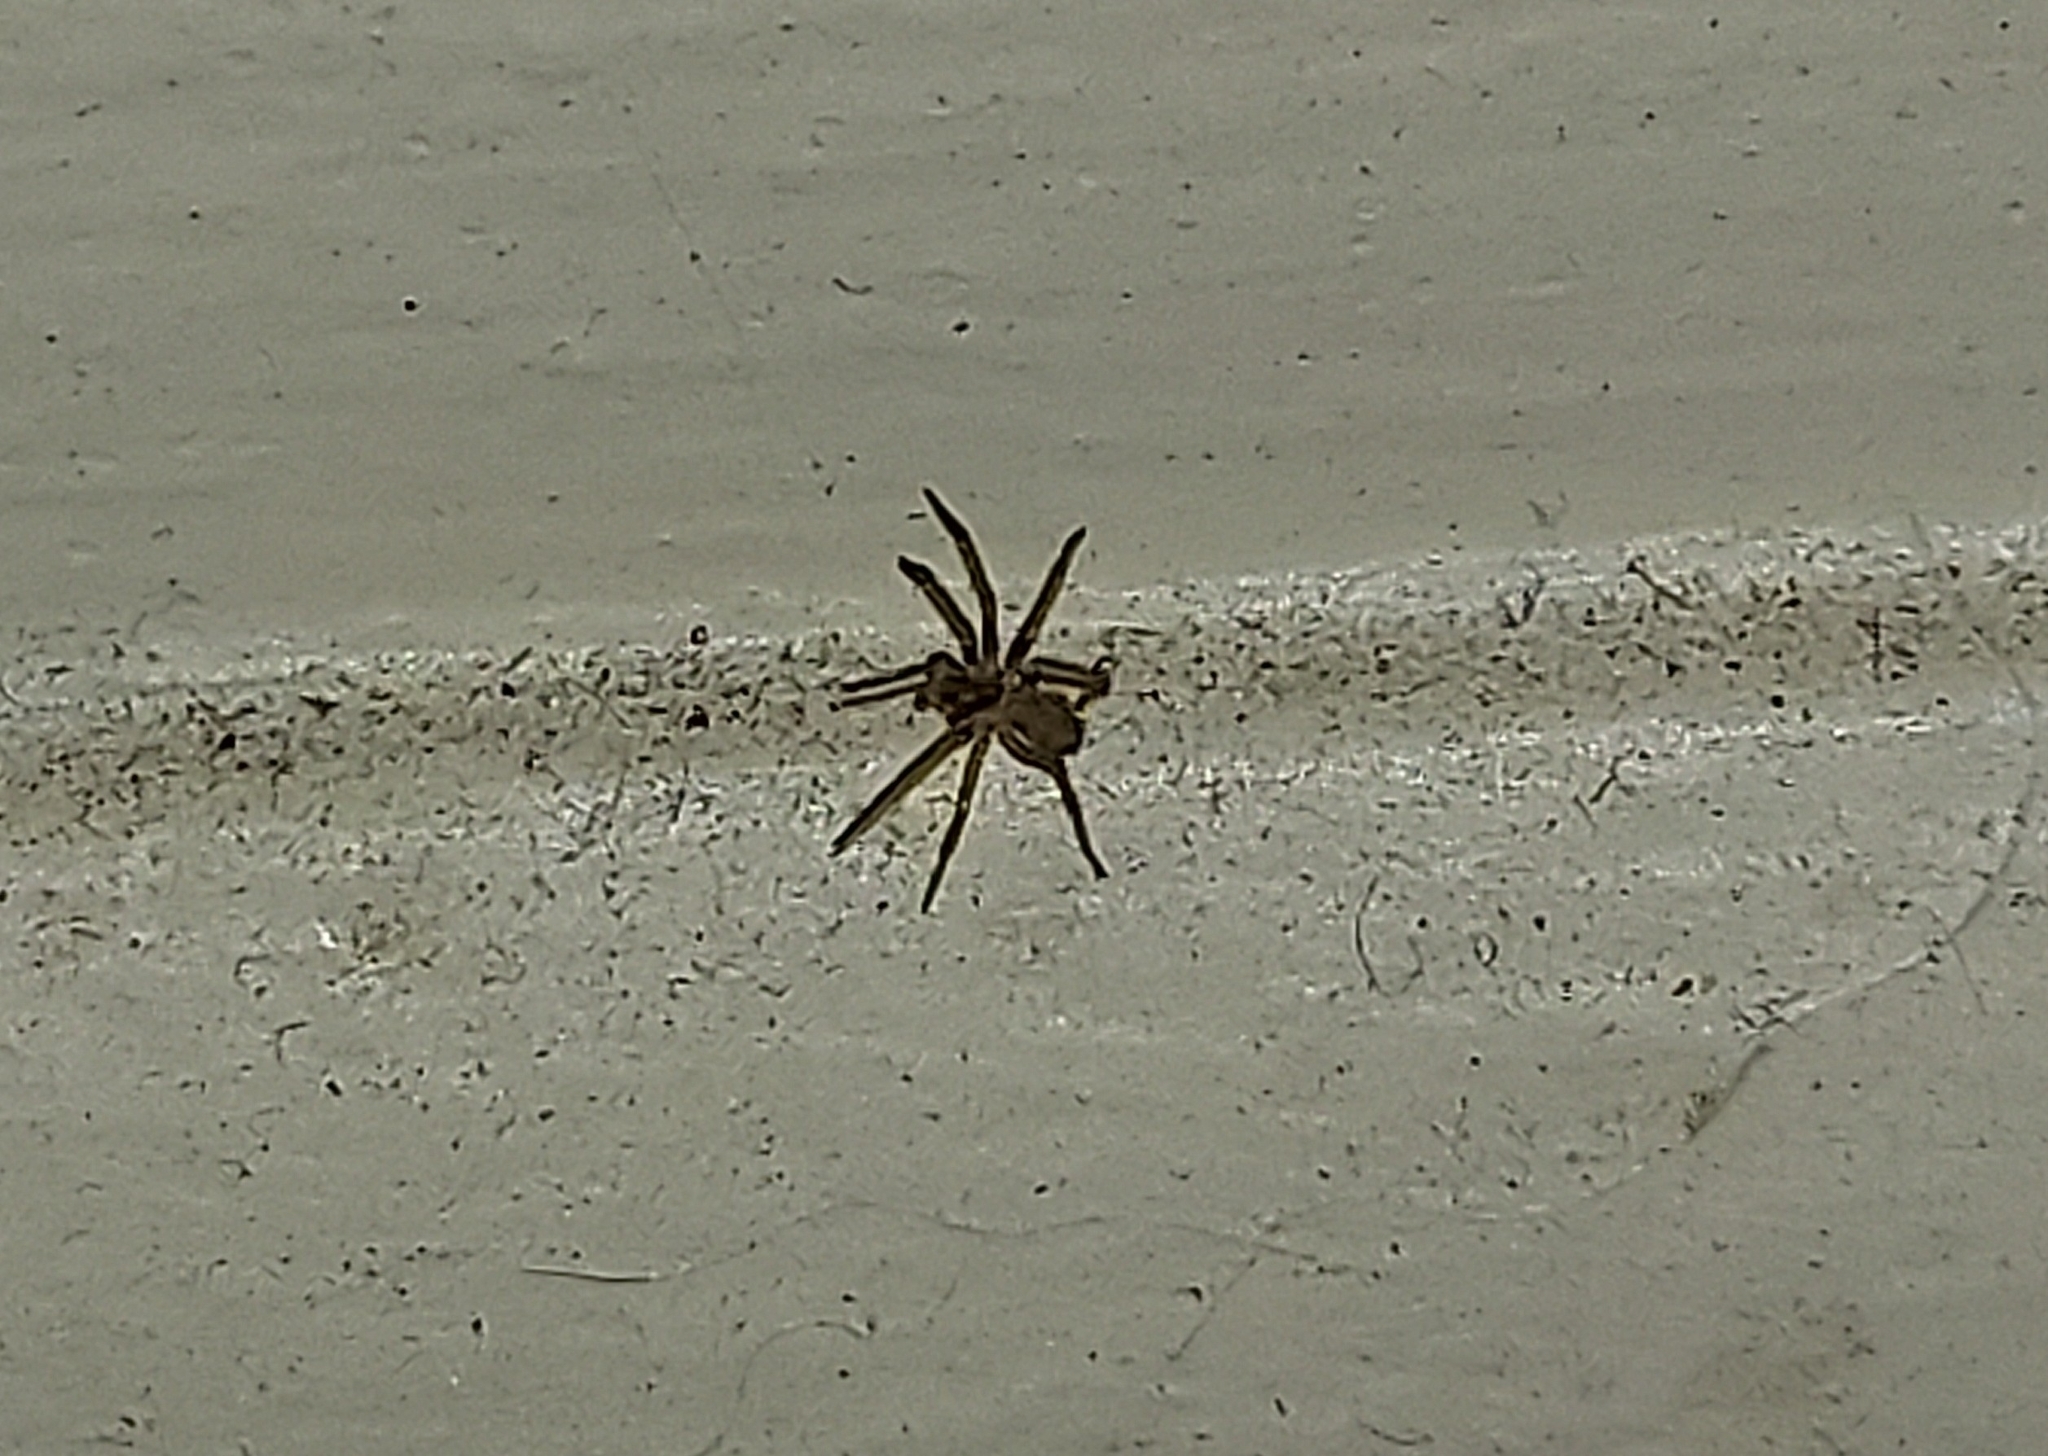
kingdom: Animalia
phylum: Arthropoda
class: Arachnida
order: Araneae
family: Sicariidae
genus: Loxosceles
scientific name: Loxosceles reclusa
